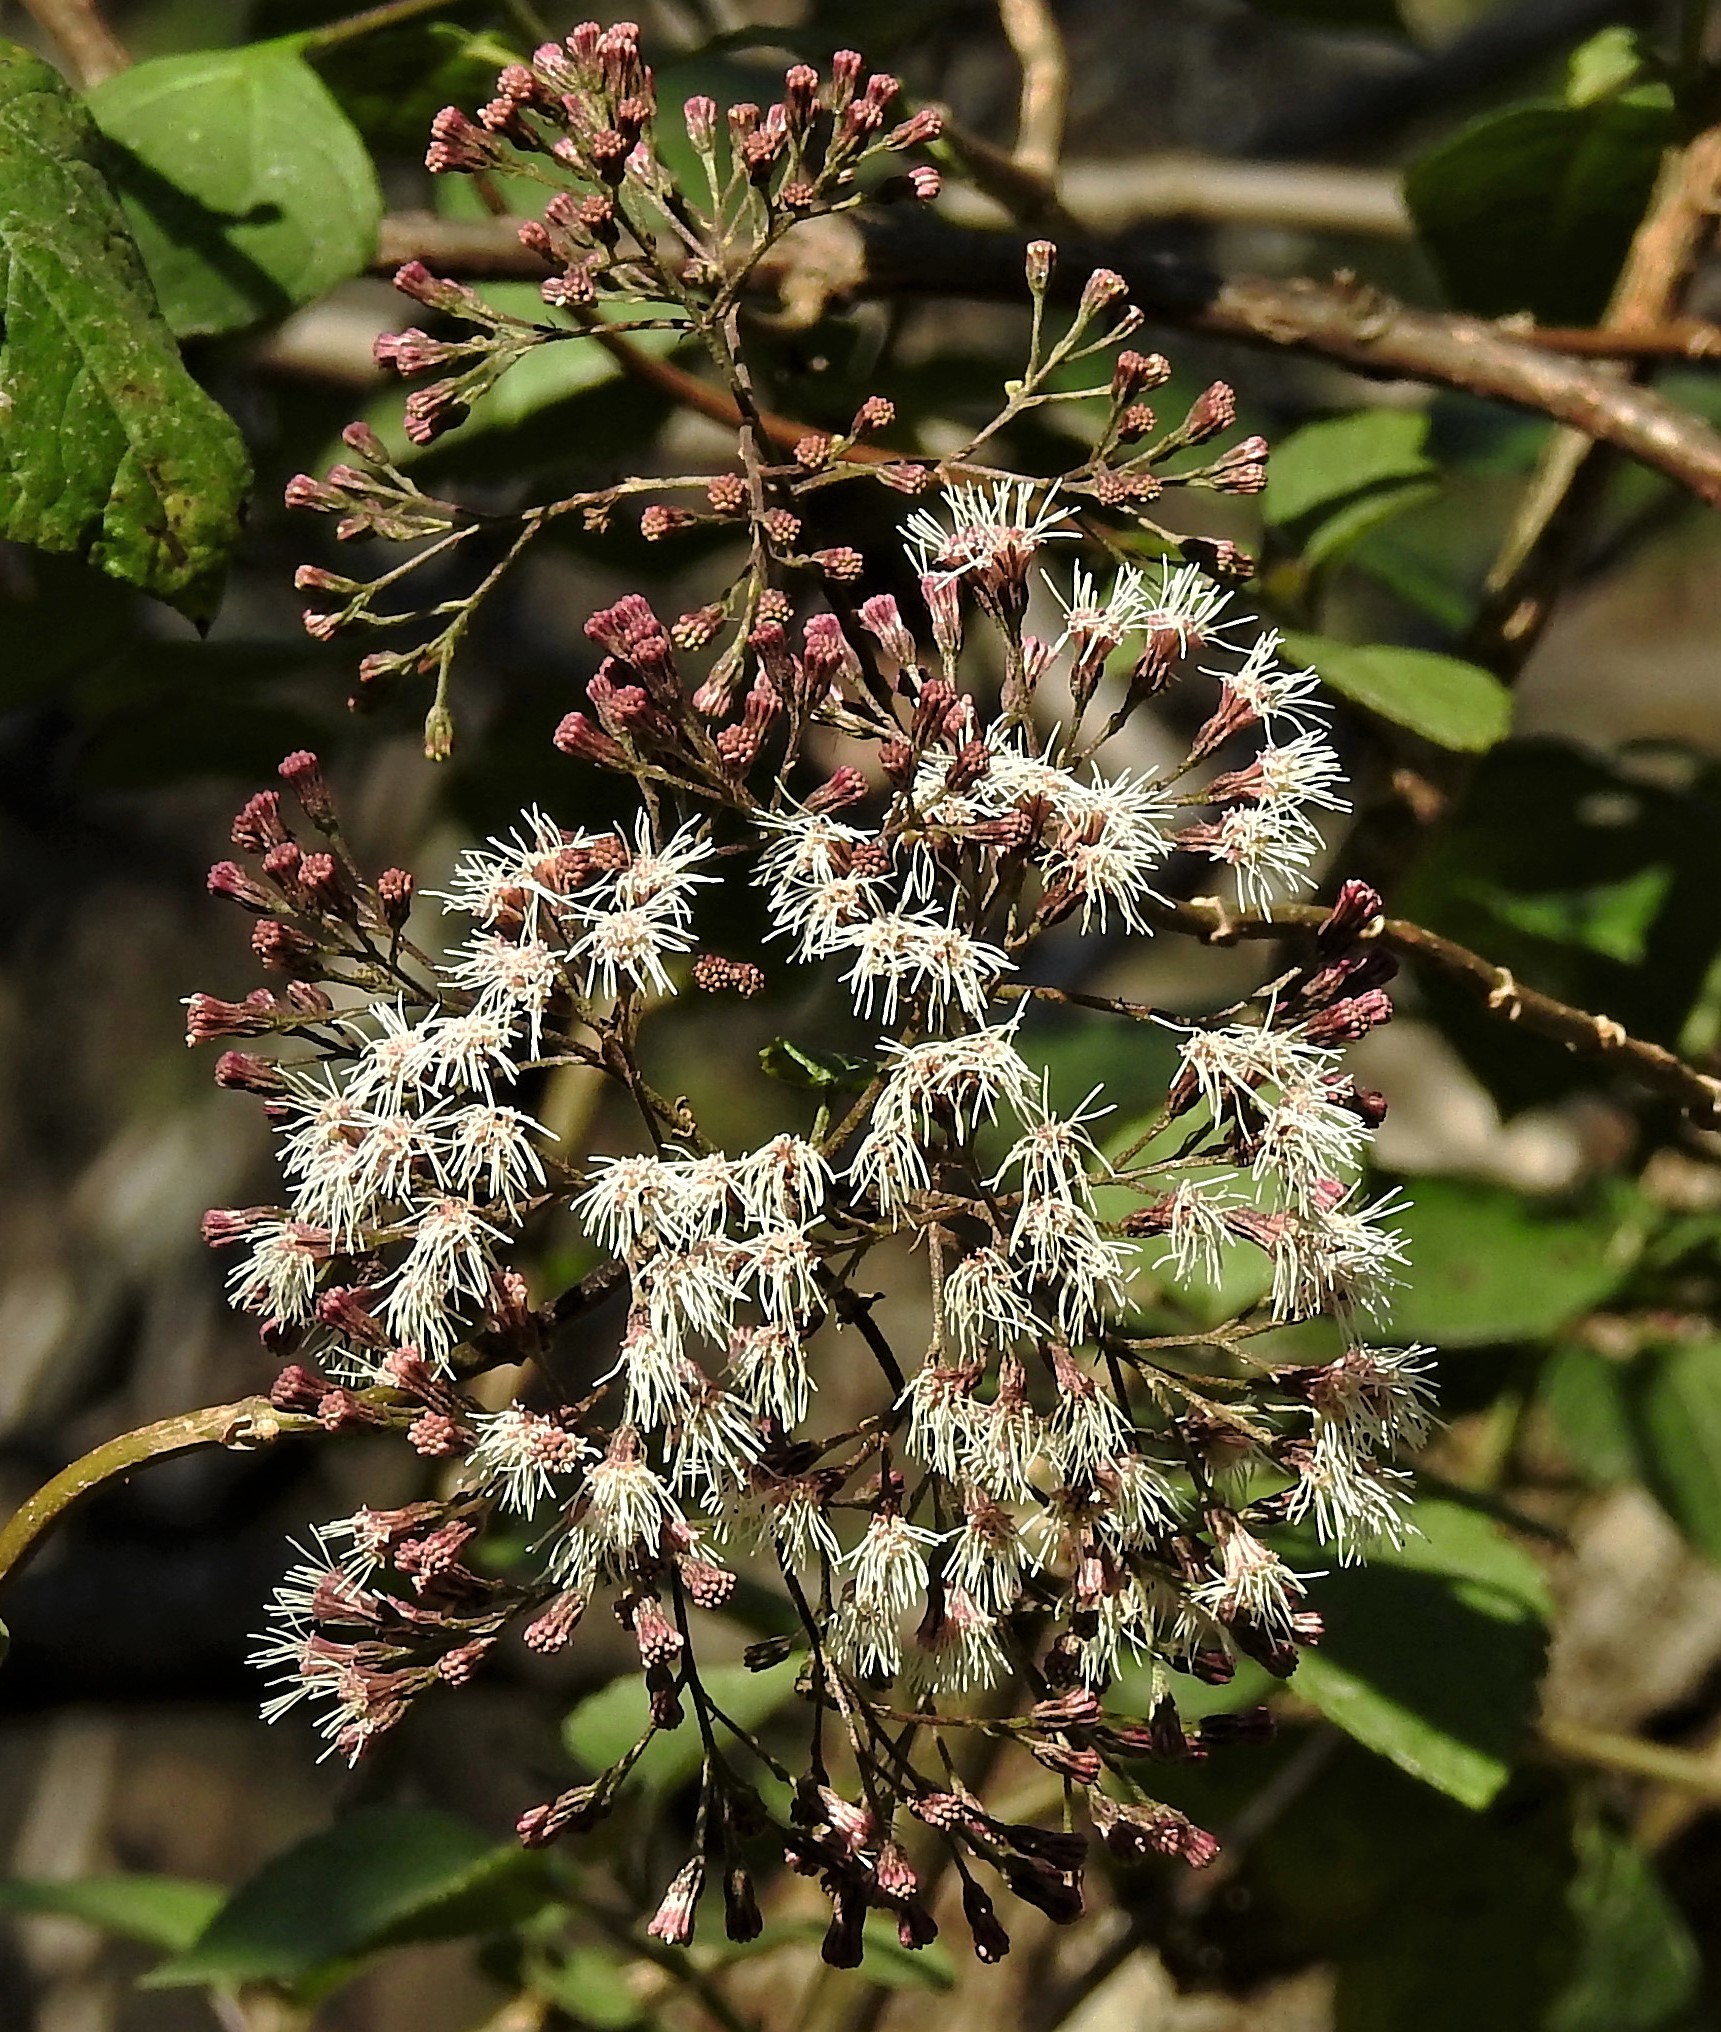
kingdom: Plantae
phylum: Tracheophyta
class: Magnoliopsida
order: Asterales
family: Asteraceae
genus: Kaunia
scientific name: Kaunia lasiophthalma
